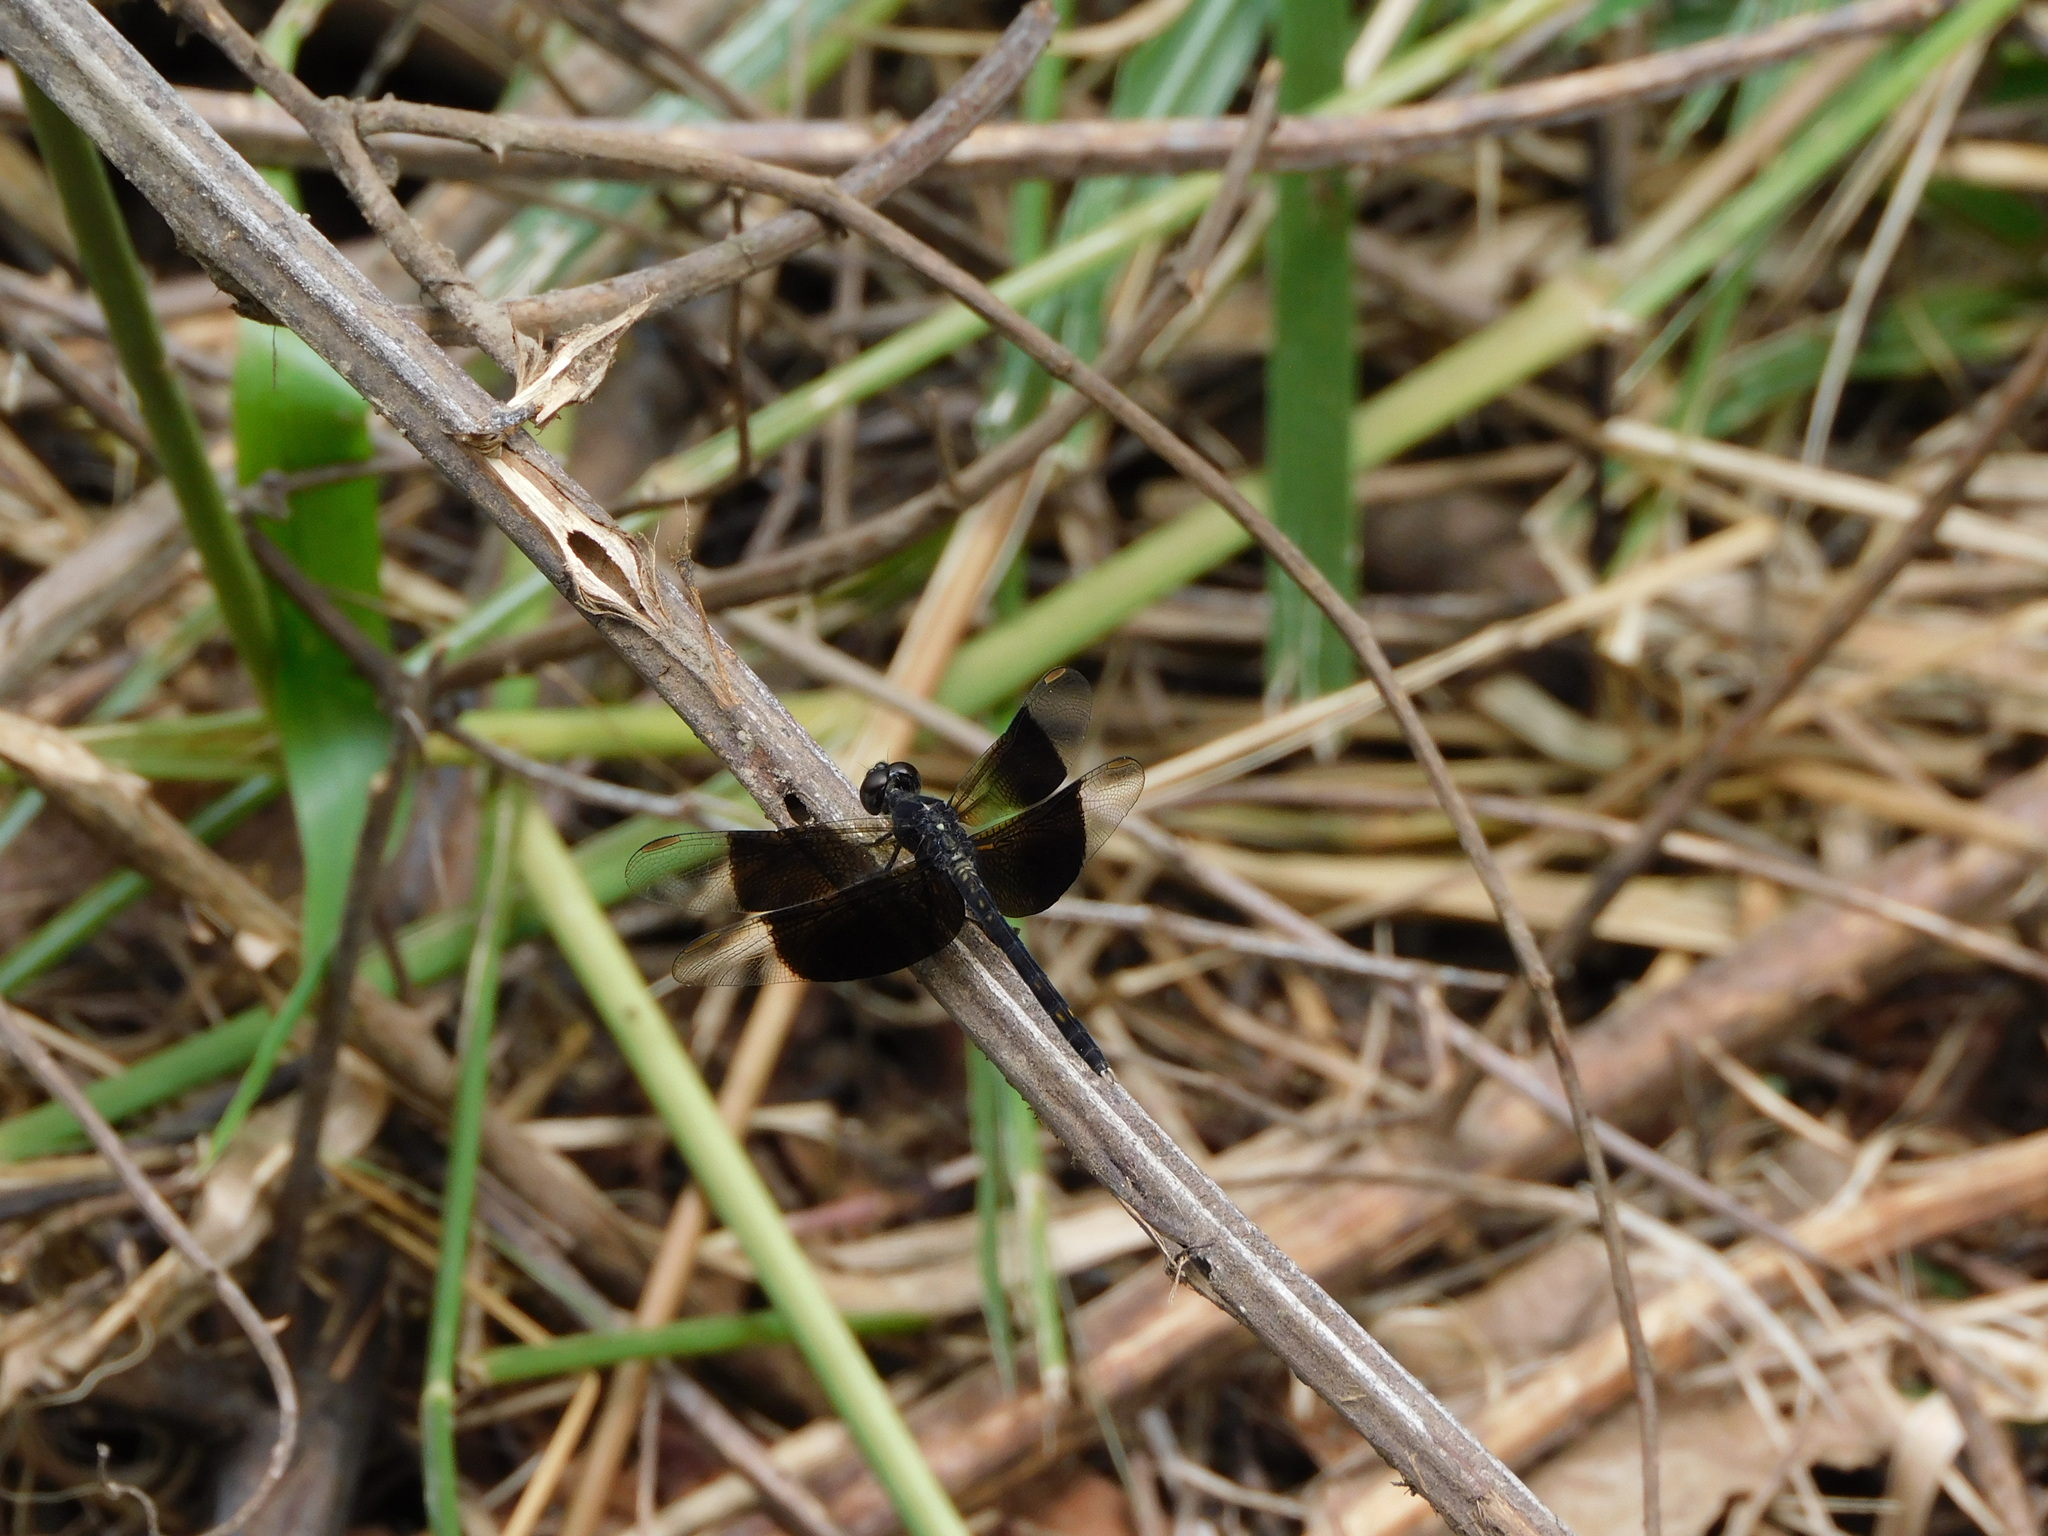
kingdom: Animalia
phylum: Arthropoda
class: Insecta
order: Odonata
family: Libellulidae
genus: Erythrodiplax
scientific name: Erythrodiplax funerea
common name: Black-winged dragonlet
